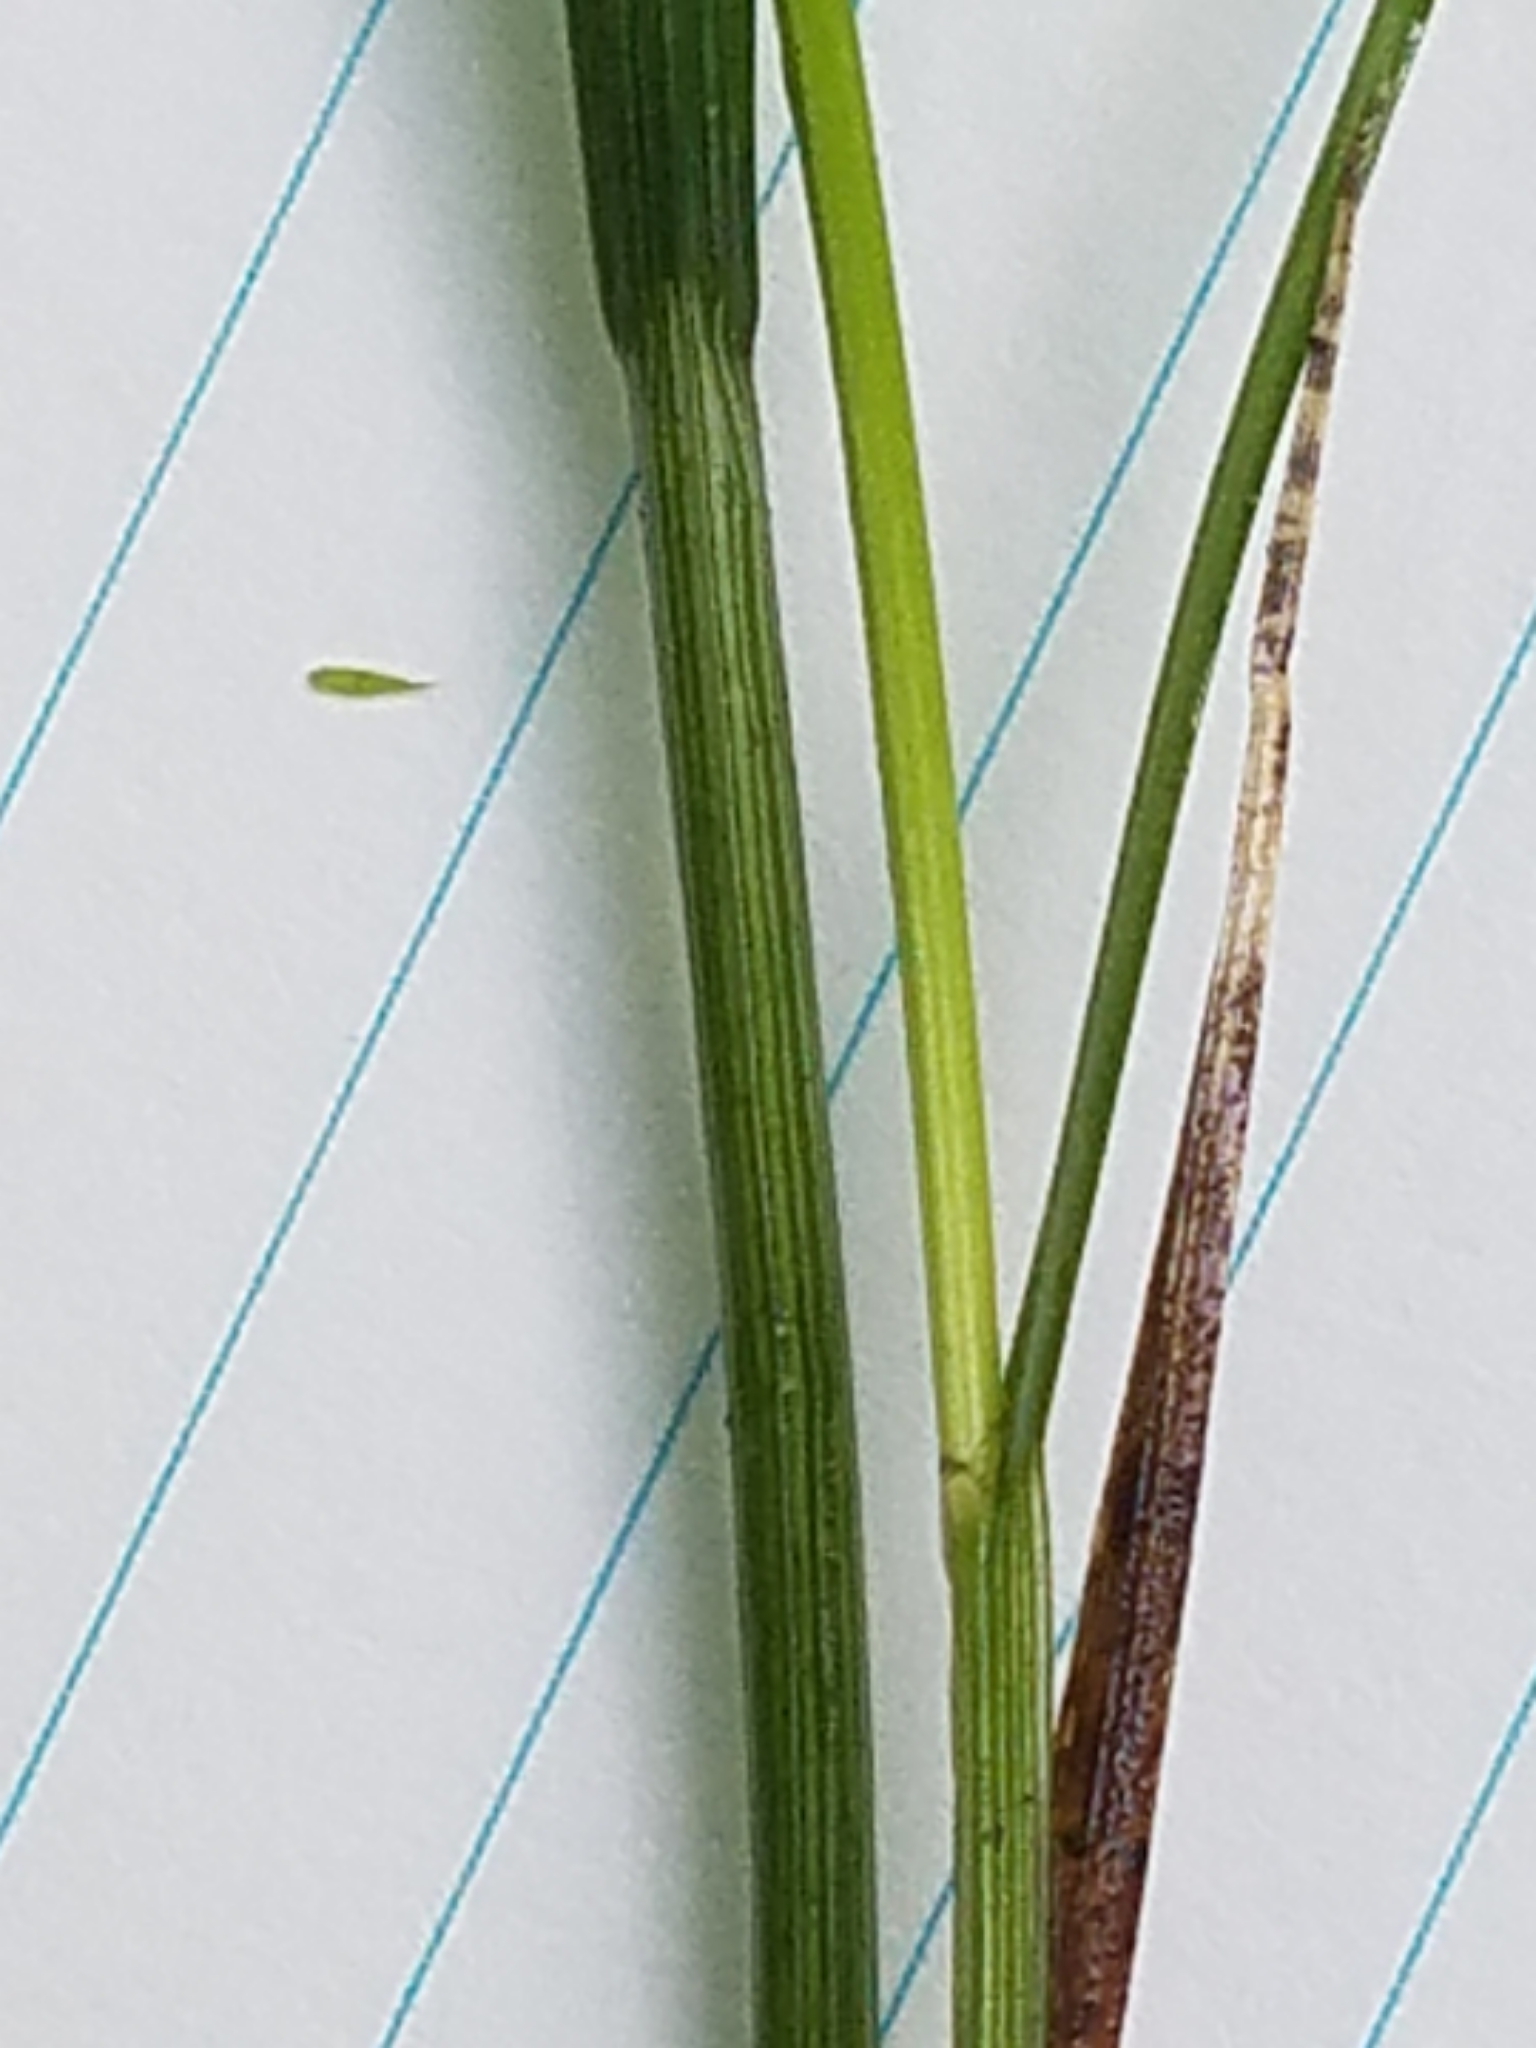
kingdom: Plantae
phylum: Tracheophyta
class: Liliopsida
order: Poales
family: Cyperaceae
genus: Carex
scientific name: Carex echinodes
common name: Marsh straw sedge
